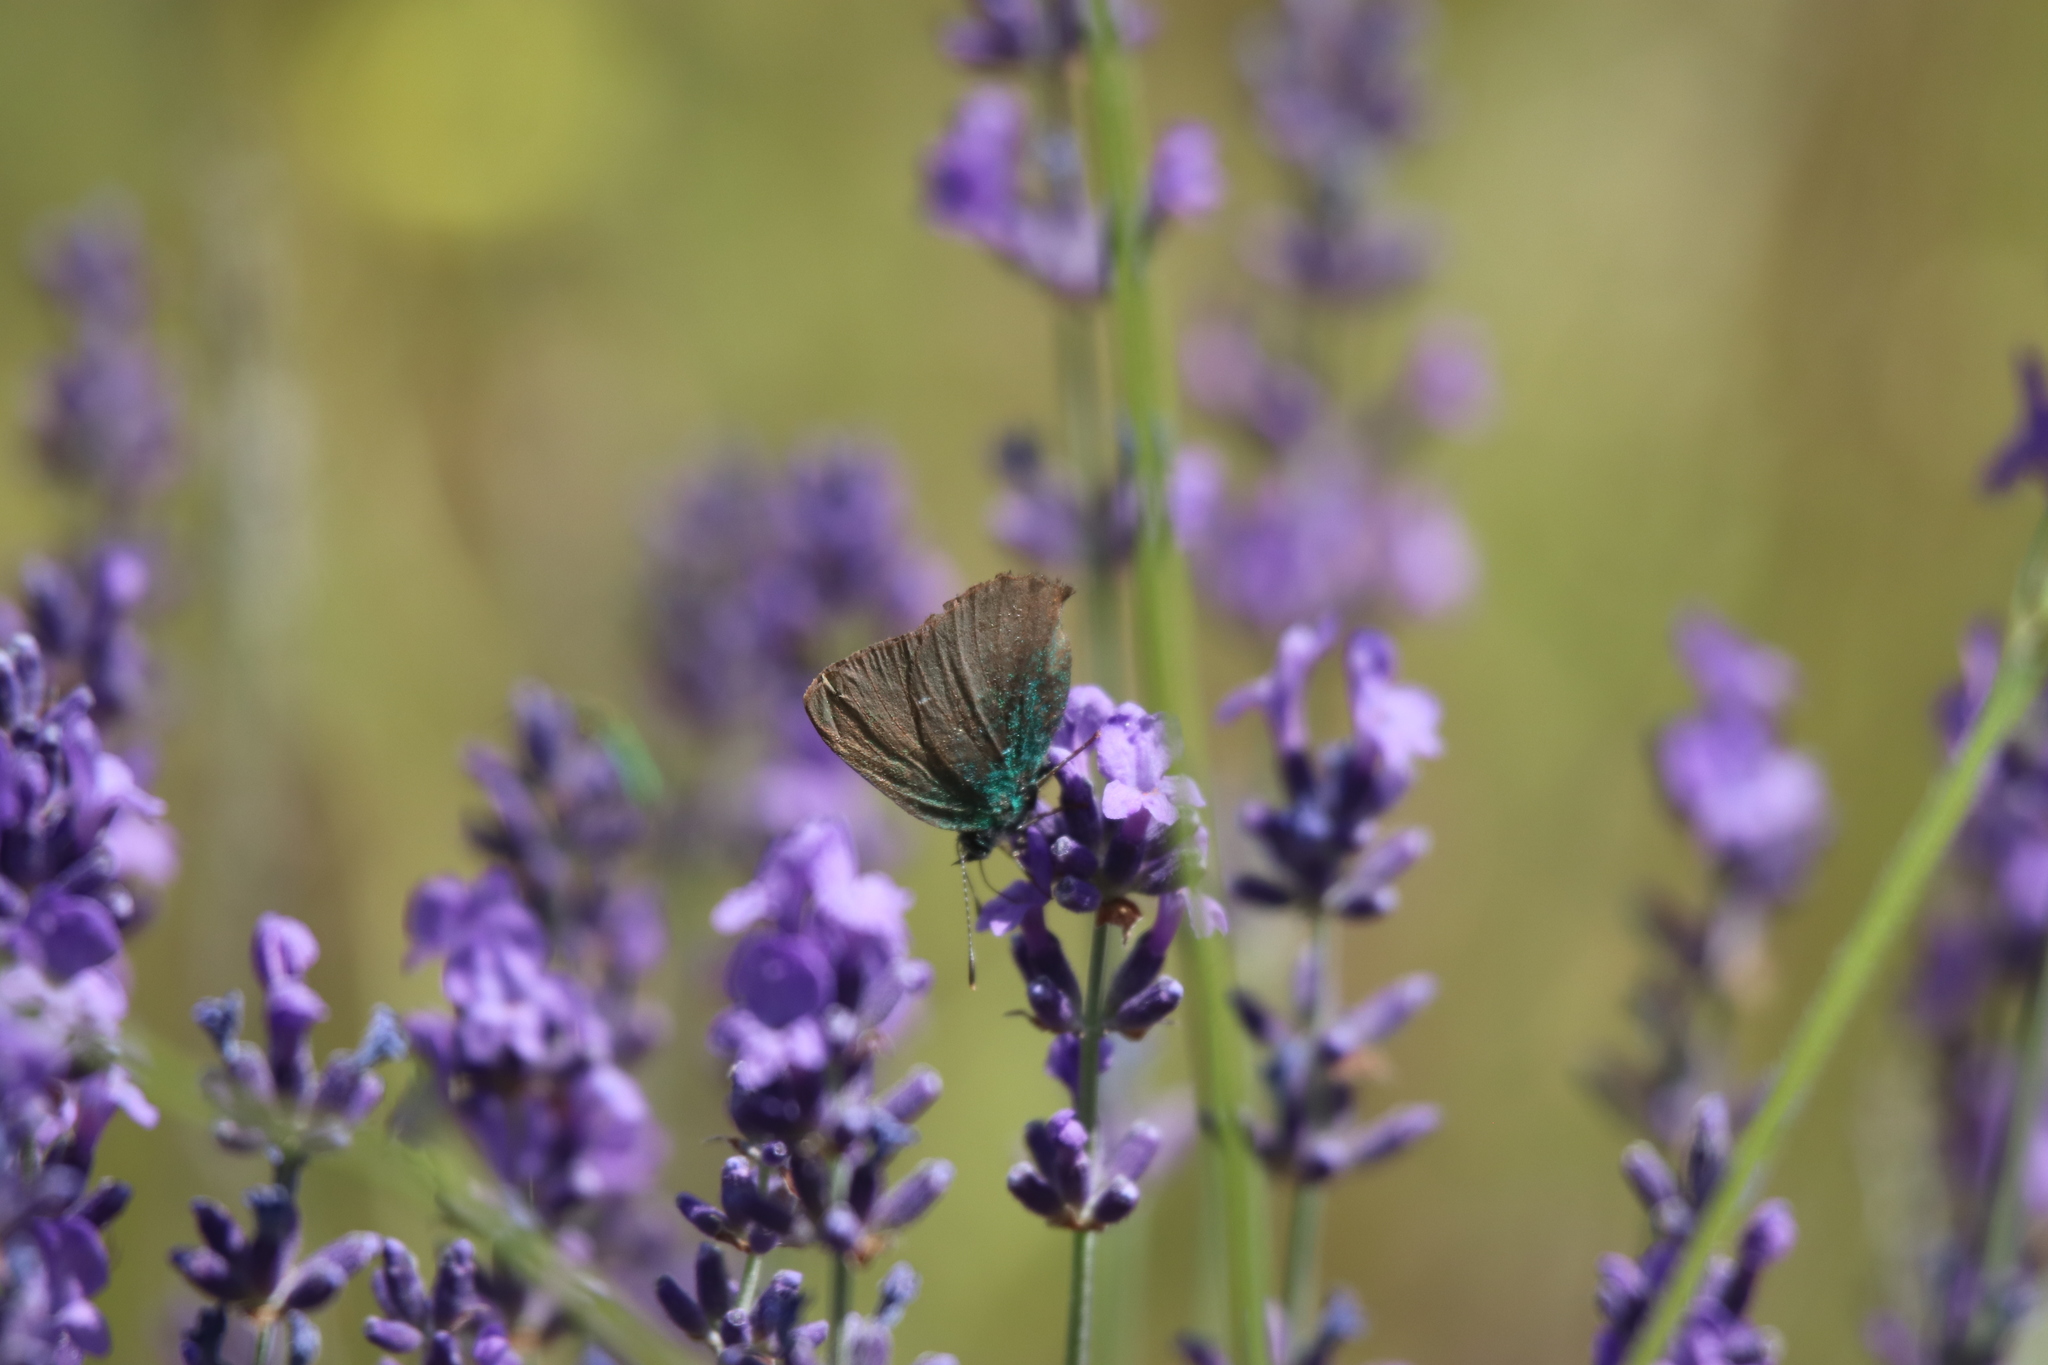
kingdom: Animalia
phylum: Arthropoda
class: Insecta
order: Lepidoptera
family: Lycaenidae
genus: Callophrys
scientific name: Callophrys rubi
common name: Green hairstreak
